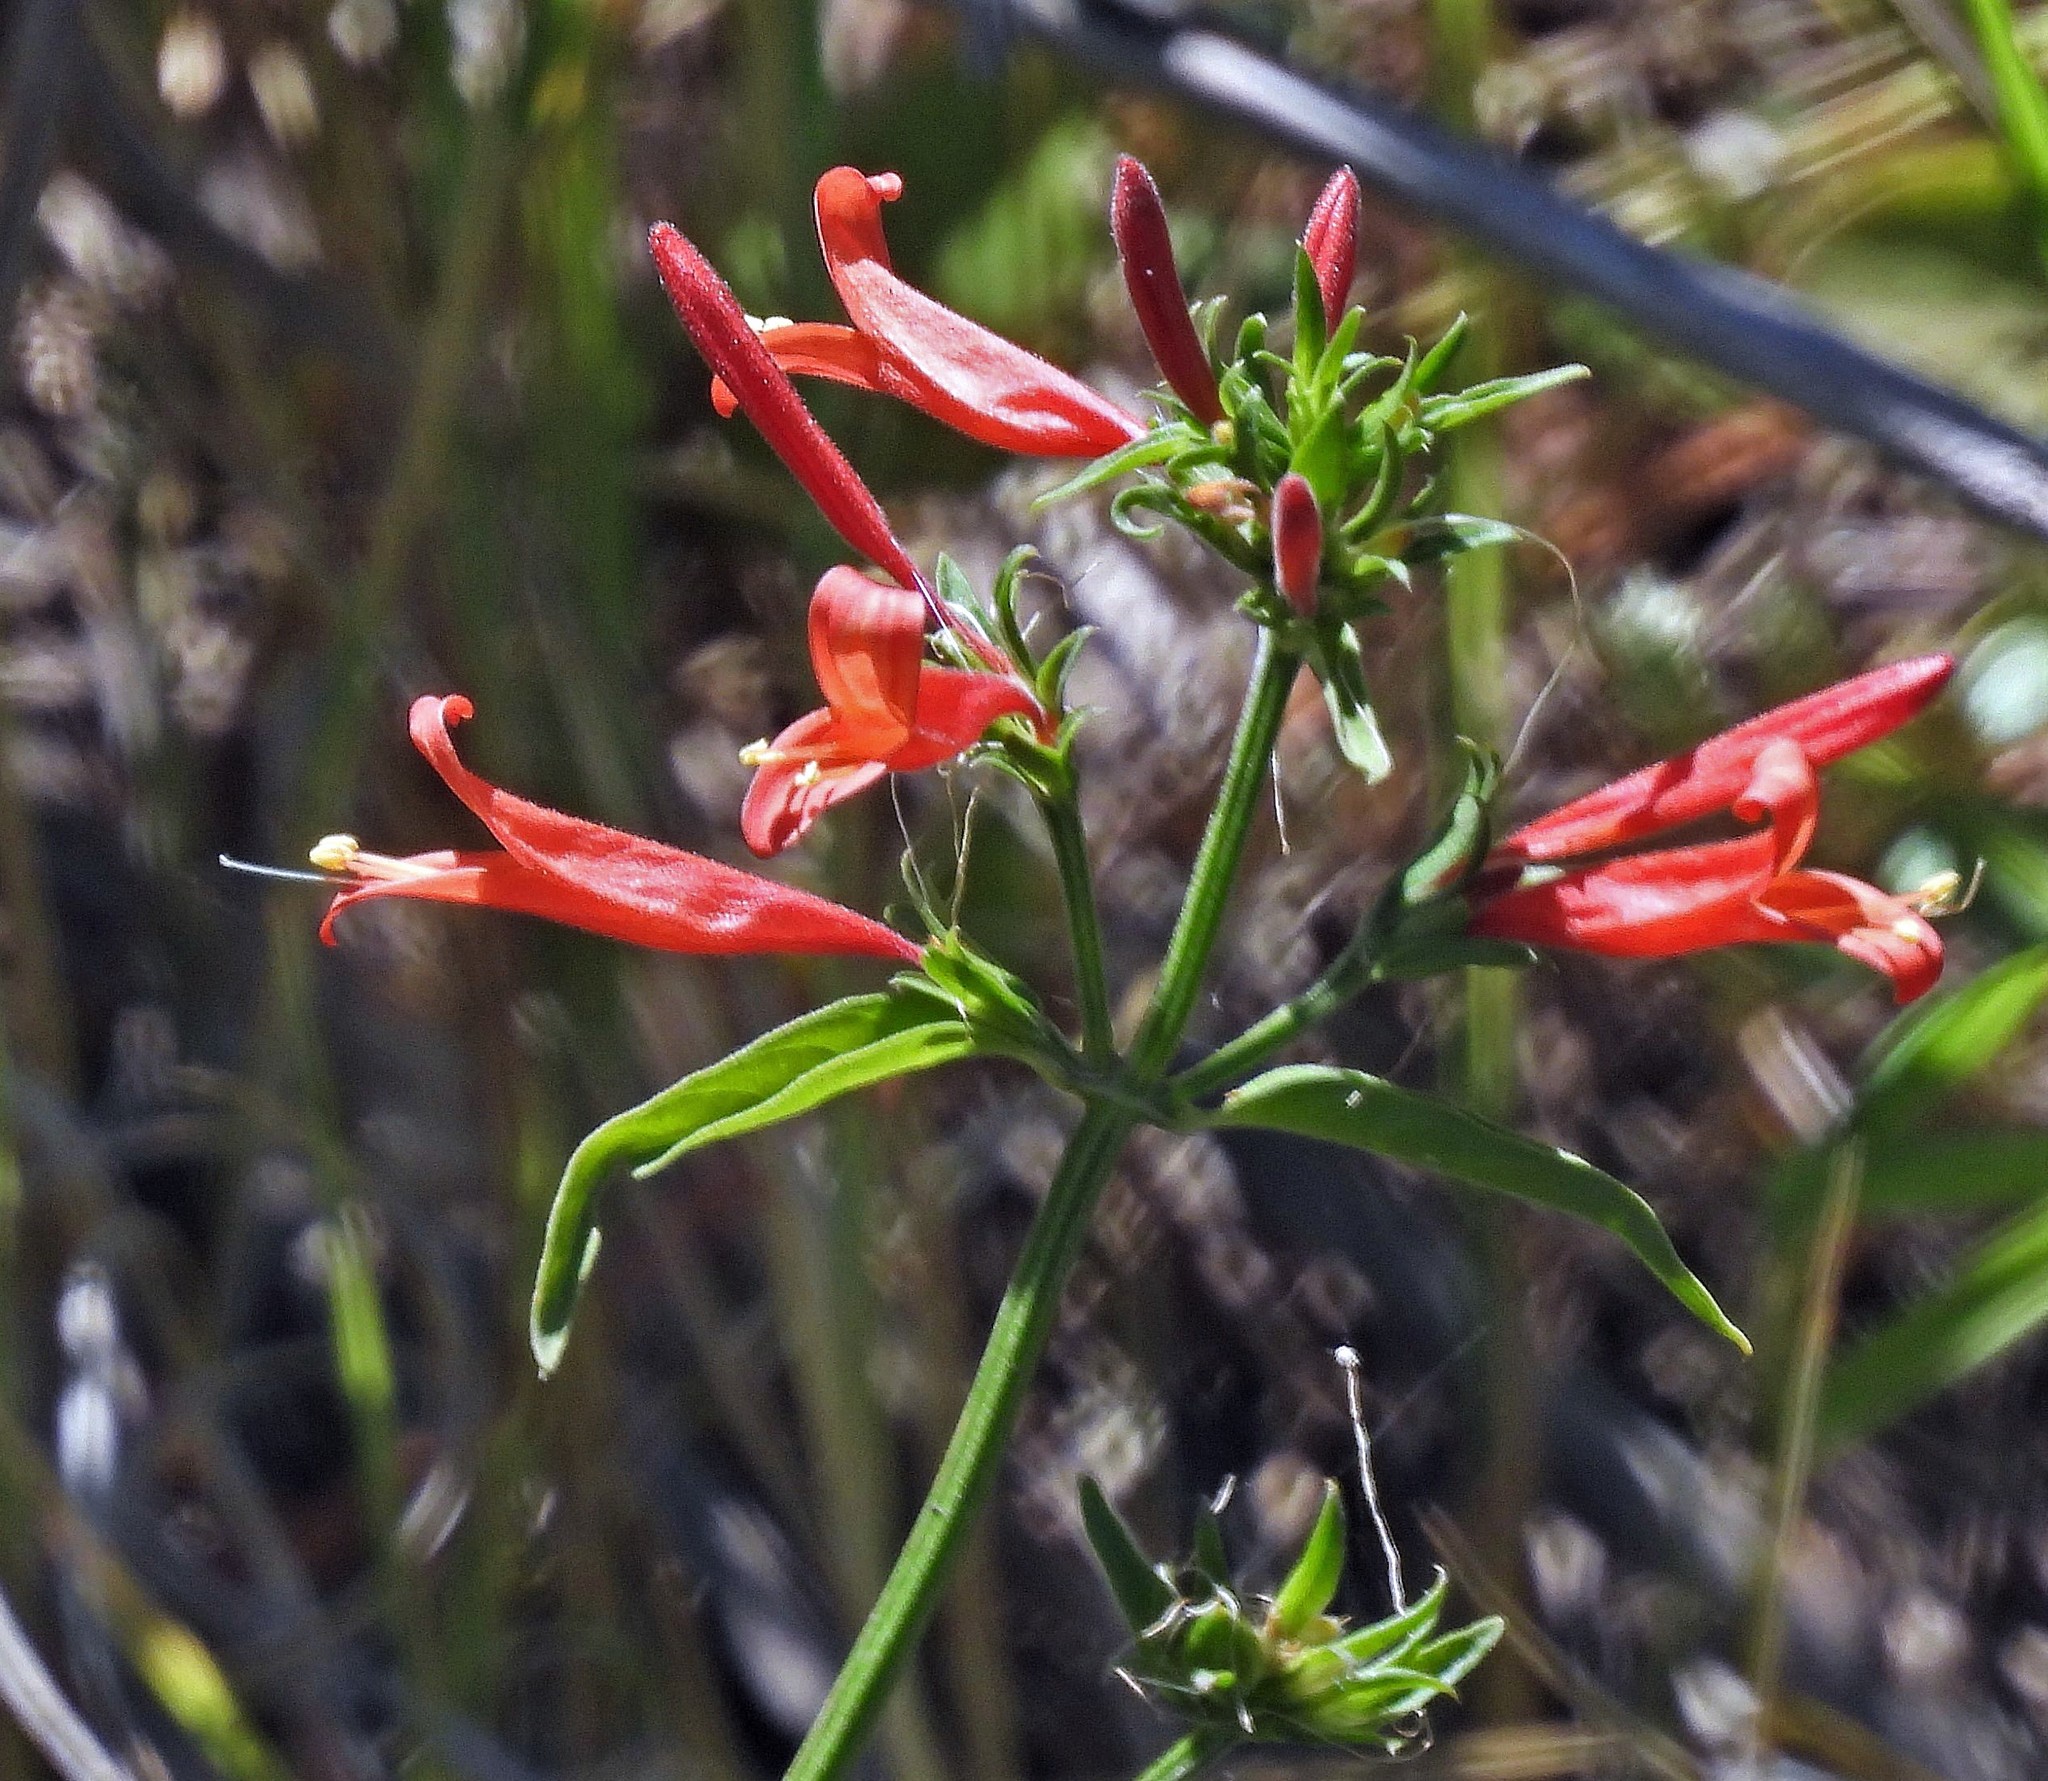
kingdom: Plantae
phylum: Tracheophyta
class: Magnoliopsida
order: Lamiales
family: Acanthaceae
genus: Dicliptera
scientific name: Dicliptera squarrosa
